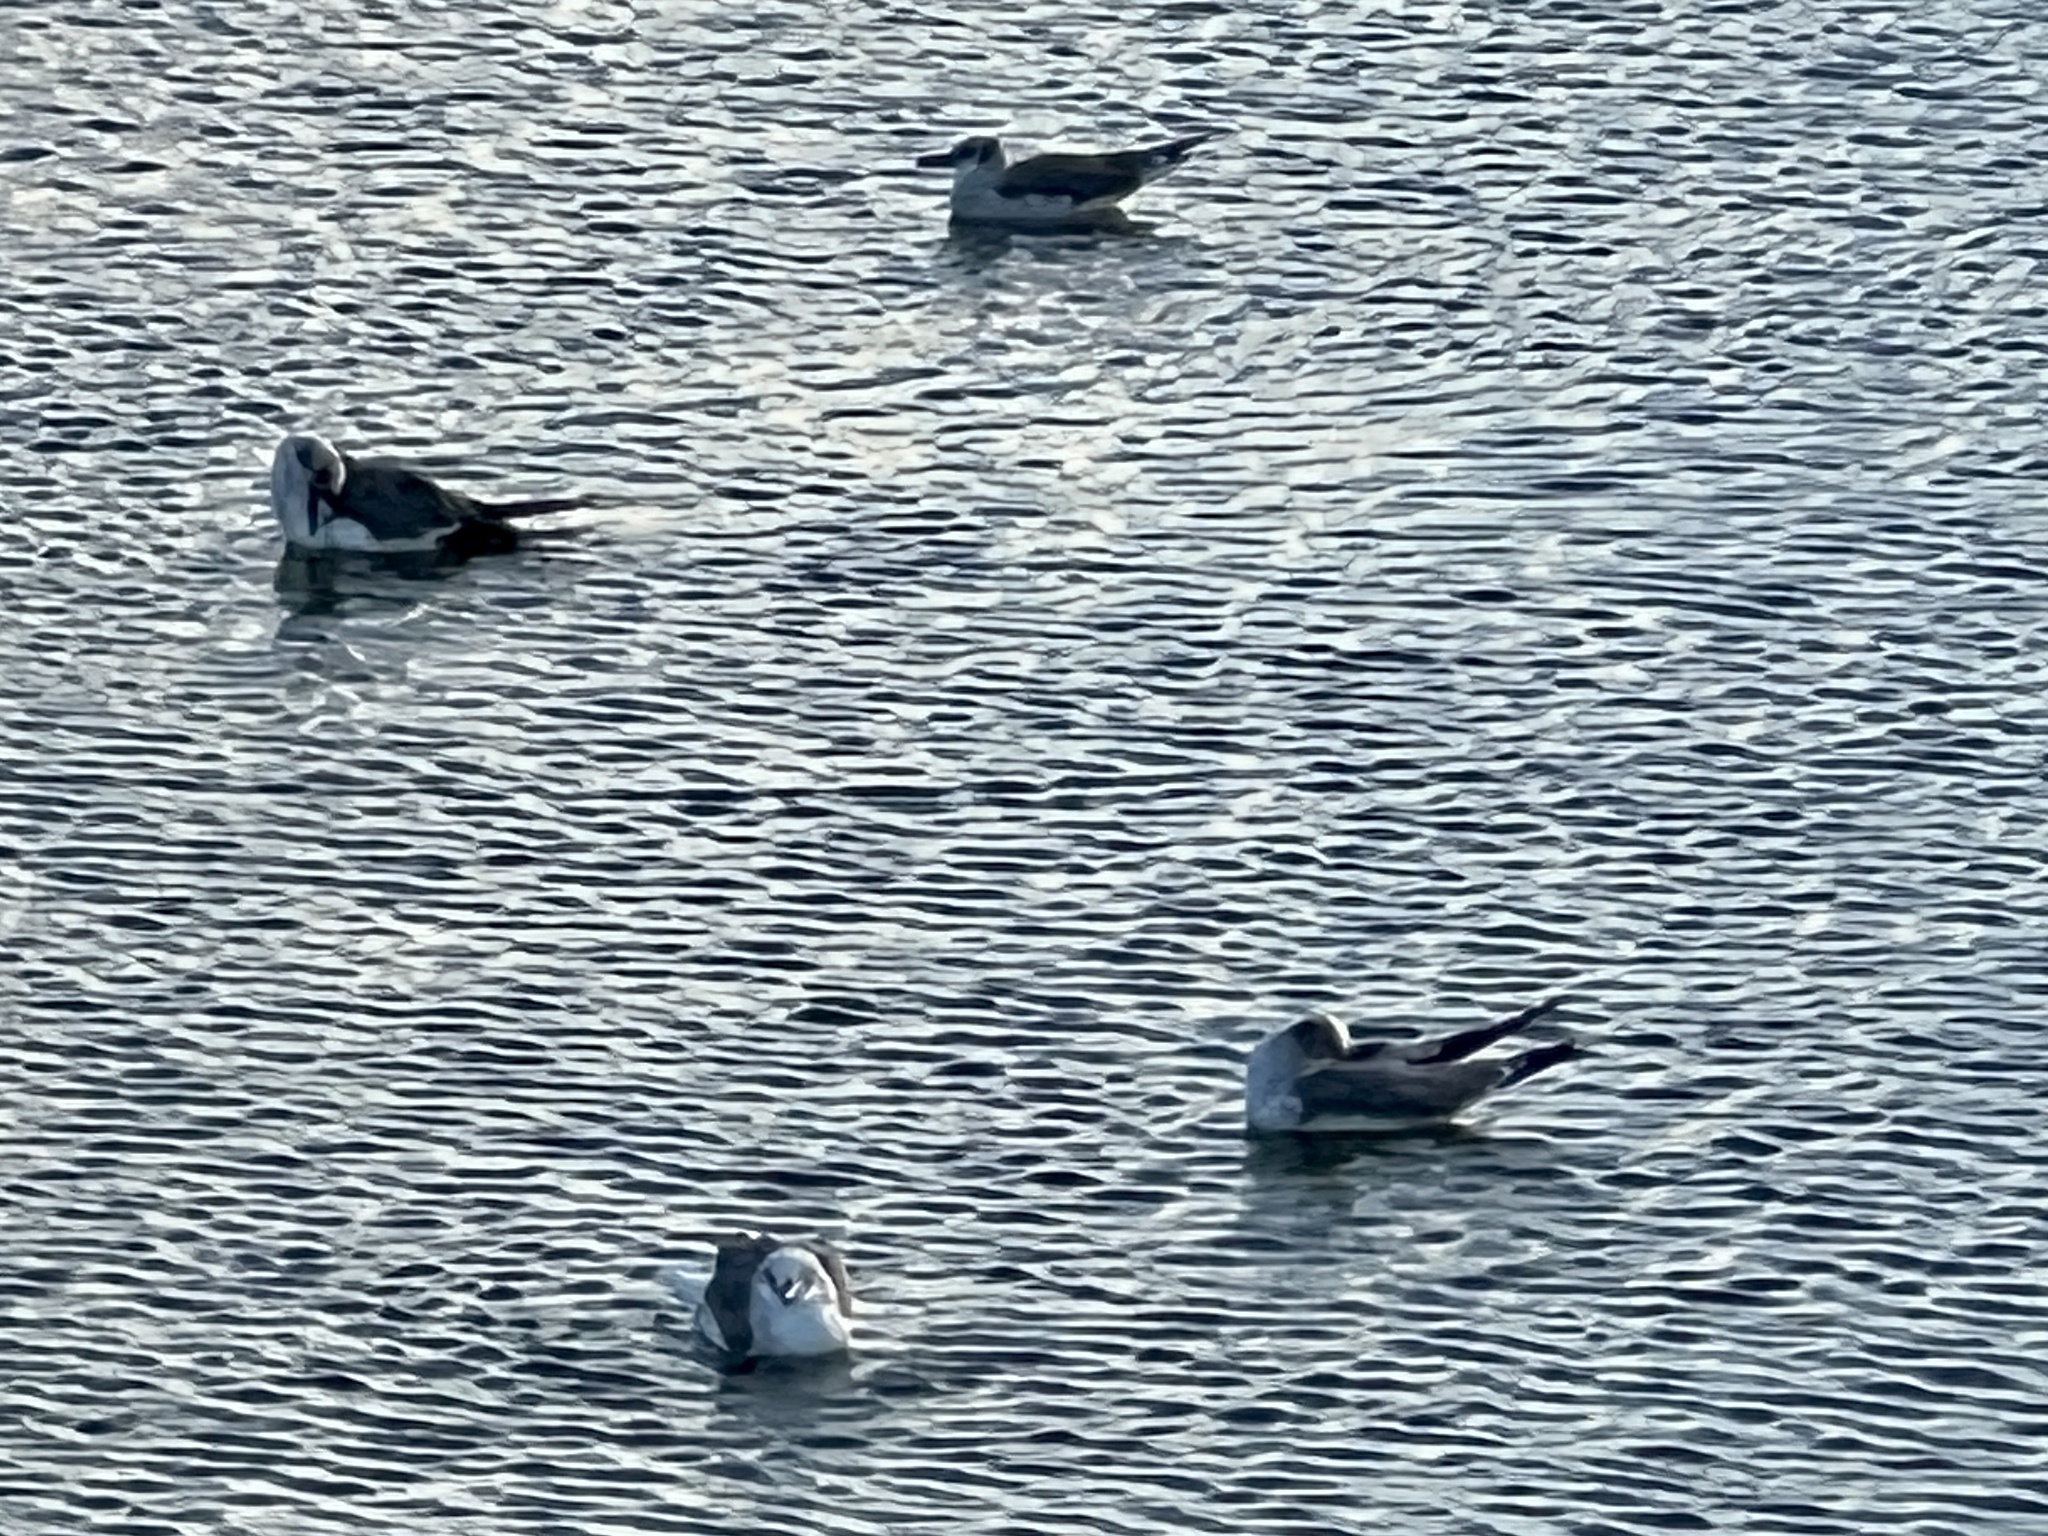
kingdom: Animalia
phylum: Chordata
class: Aves
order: Charadriiformes
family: Laridae
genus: Leucophaeus
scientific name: Leucophaeus atricilla
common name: Laughing gull
